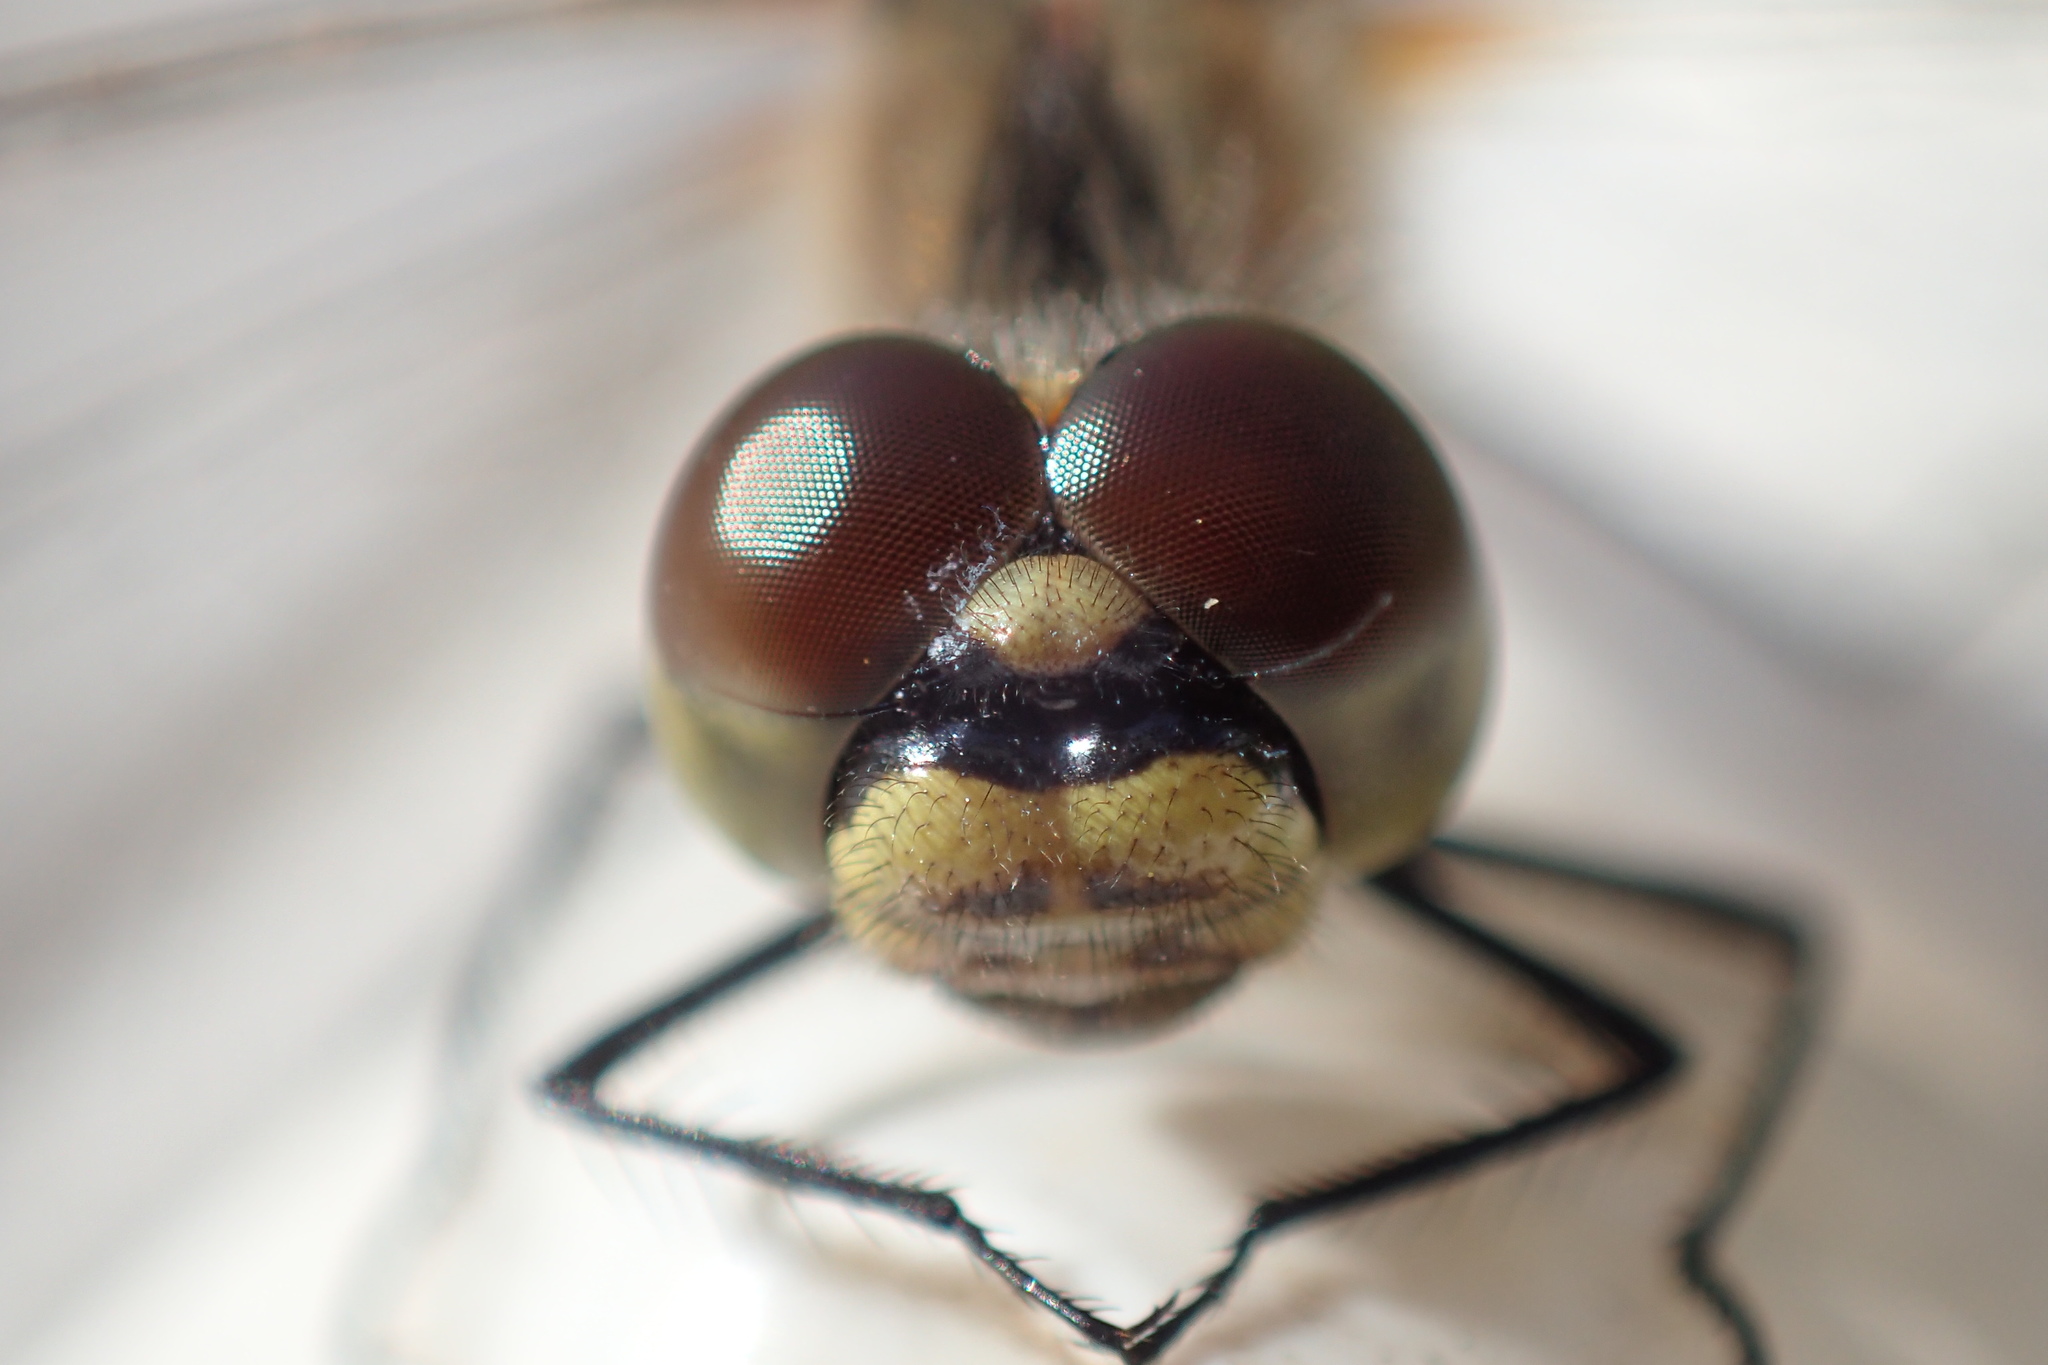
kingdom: Animalia
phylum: Arthropoda
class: Insecta
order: Odonata
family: Libellulidae
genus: Sympetrum
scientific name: Sympetrum danae
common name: Black darter
